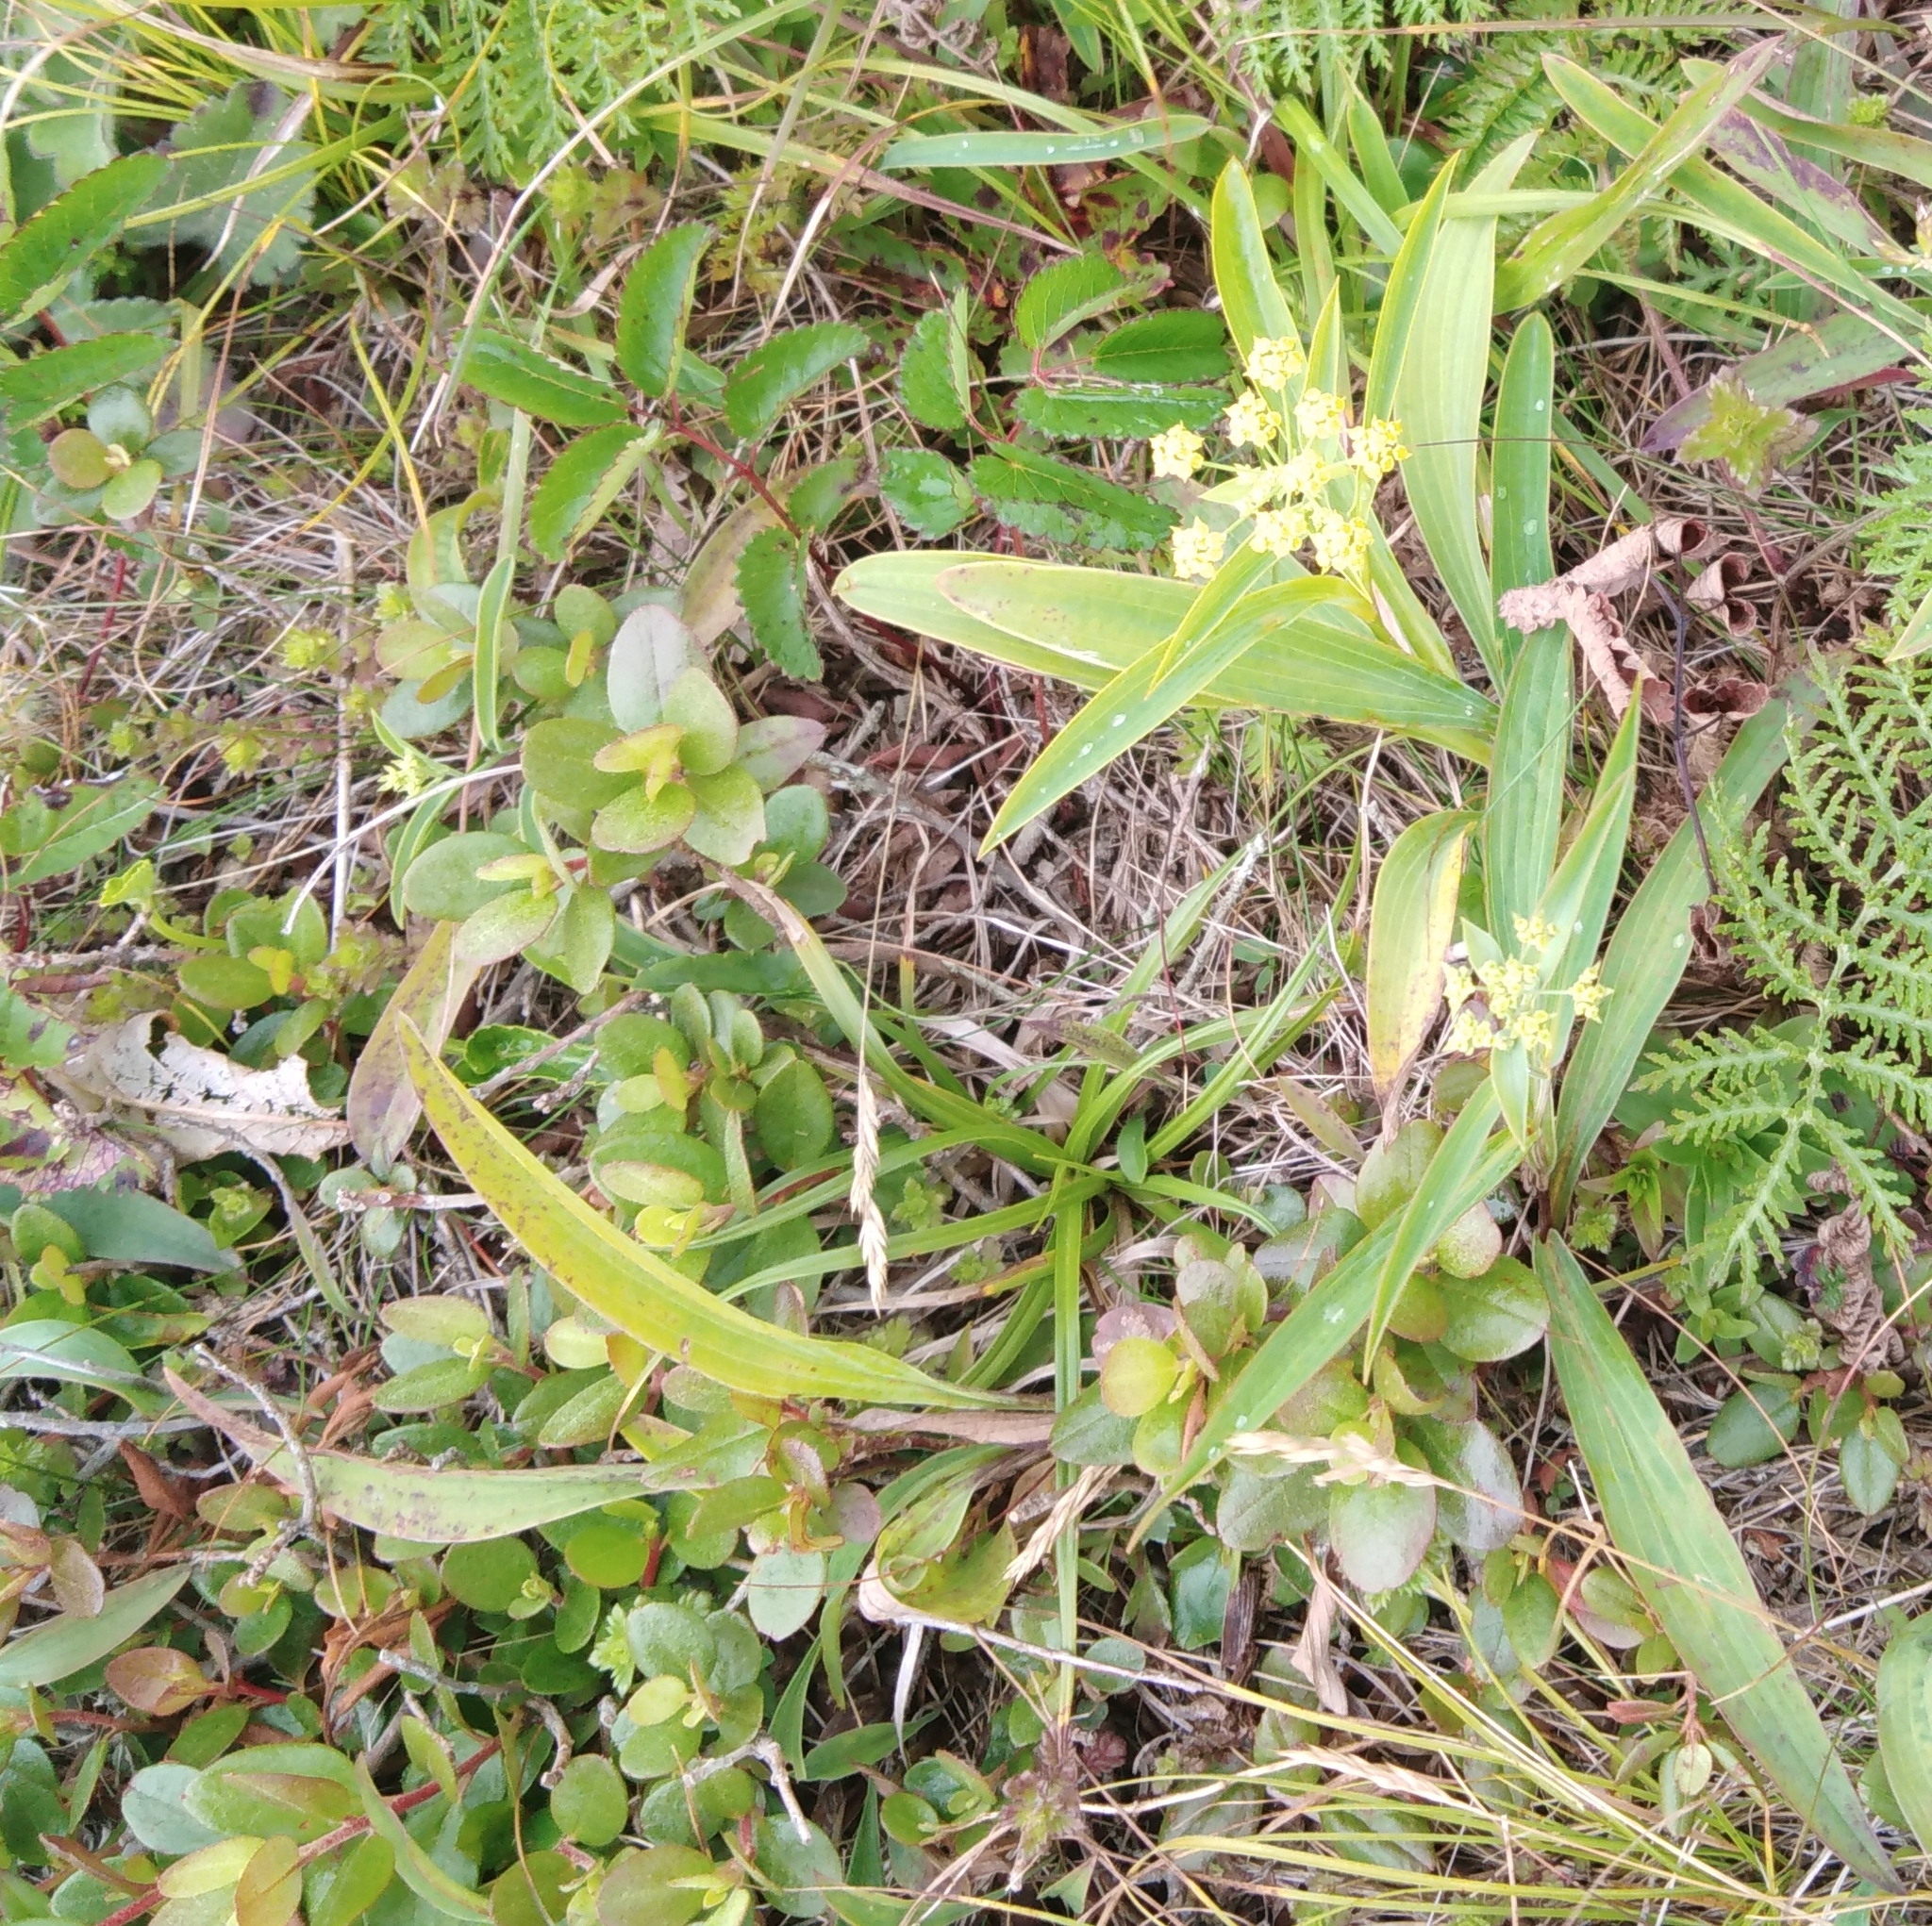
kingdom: Plantae
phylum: Tracheophyta
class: Magnoliopsida
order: Apiales
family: Apiaceae
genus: Bupleurum
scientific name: Bupleurum komarovianum
